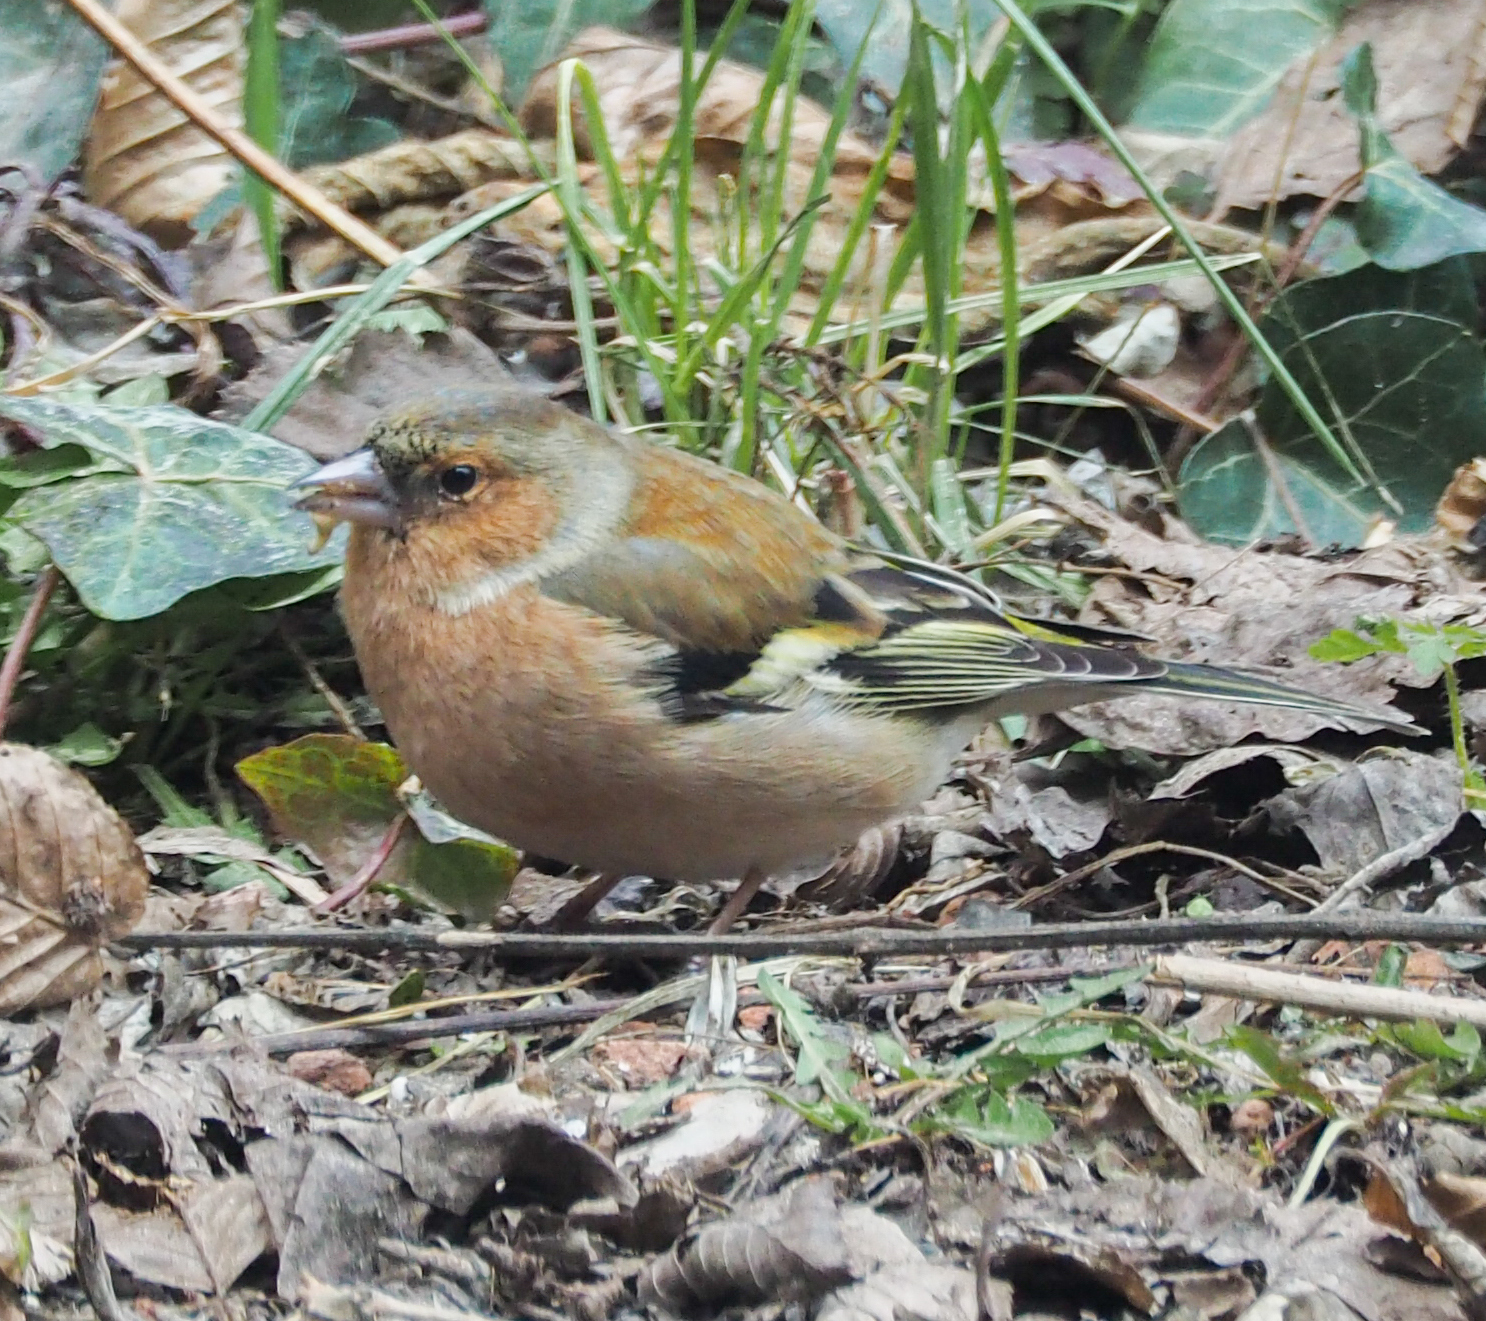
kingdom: Animalia
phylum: Chordata
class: Aves
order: Passeriformes
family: Fringillidae
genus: Fringilla
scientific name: Fringilla coelebs
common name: Common chaffinch
